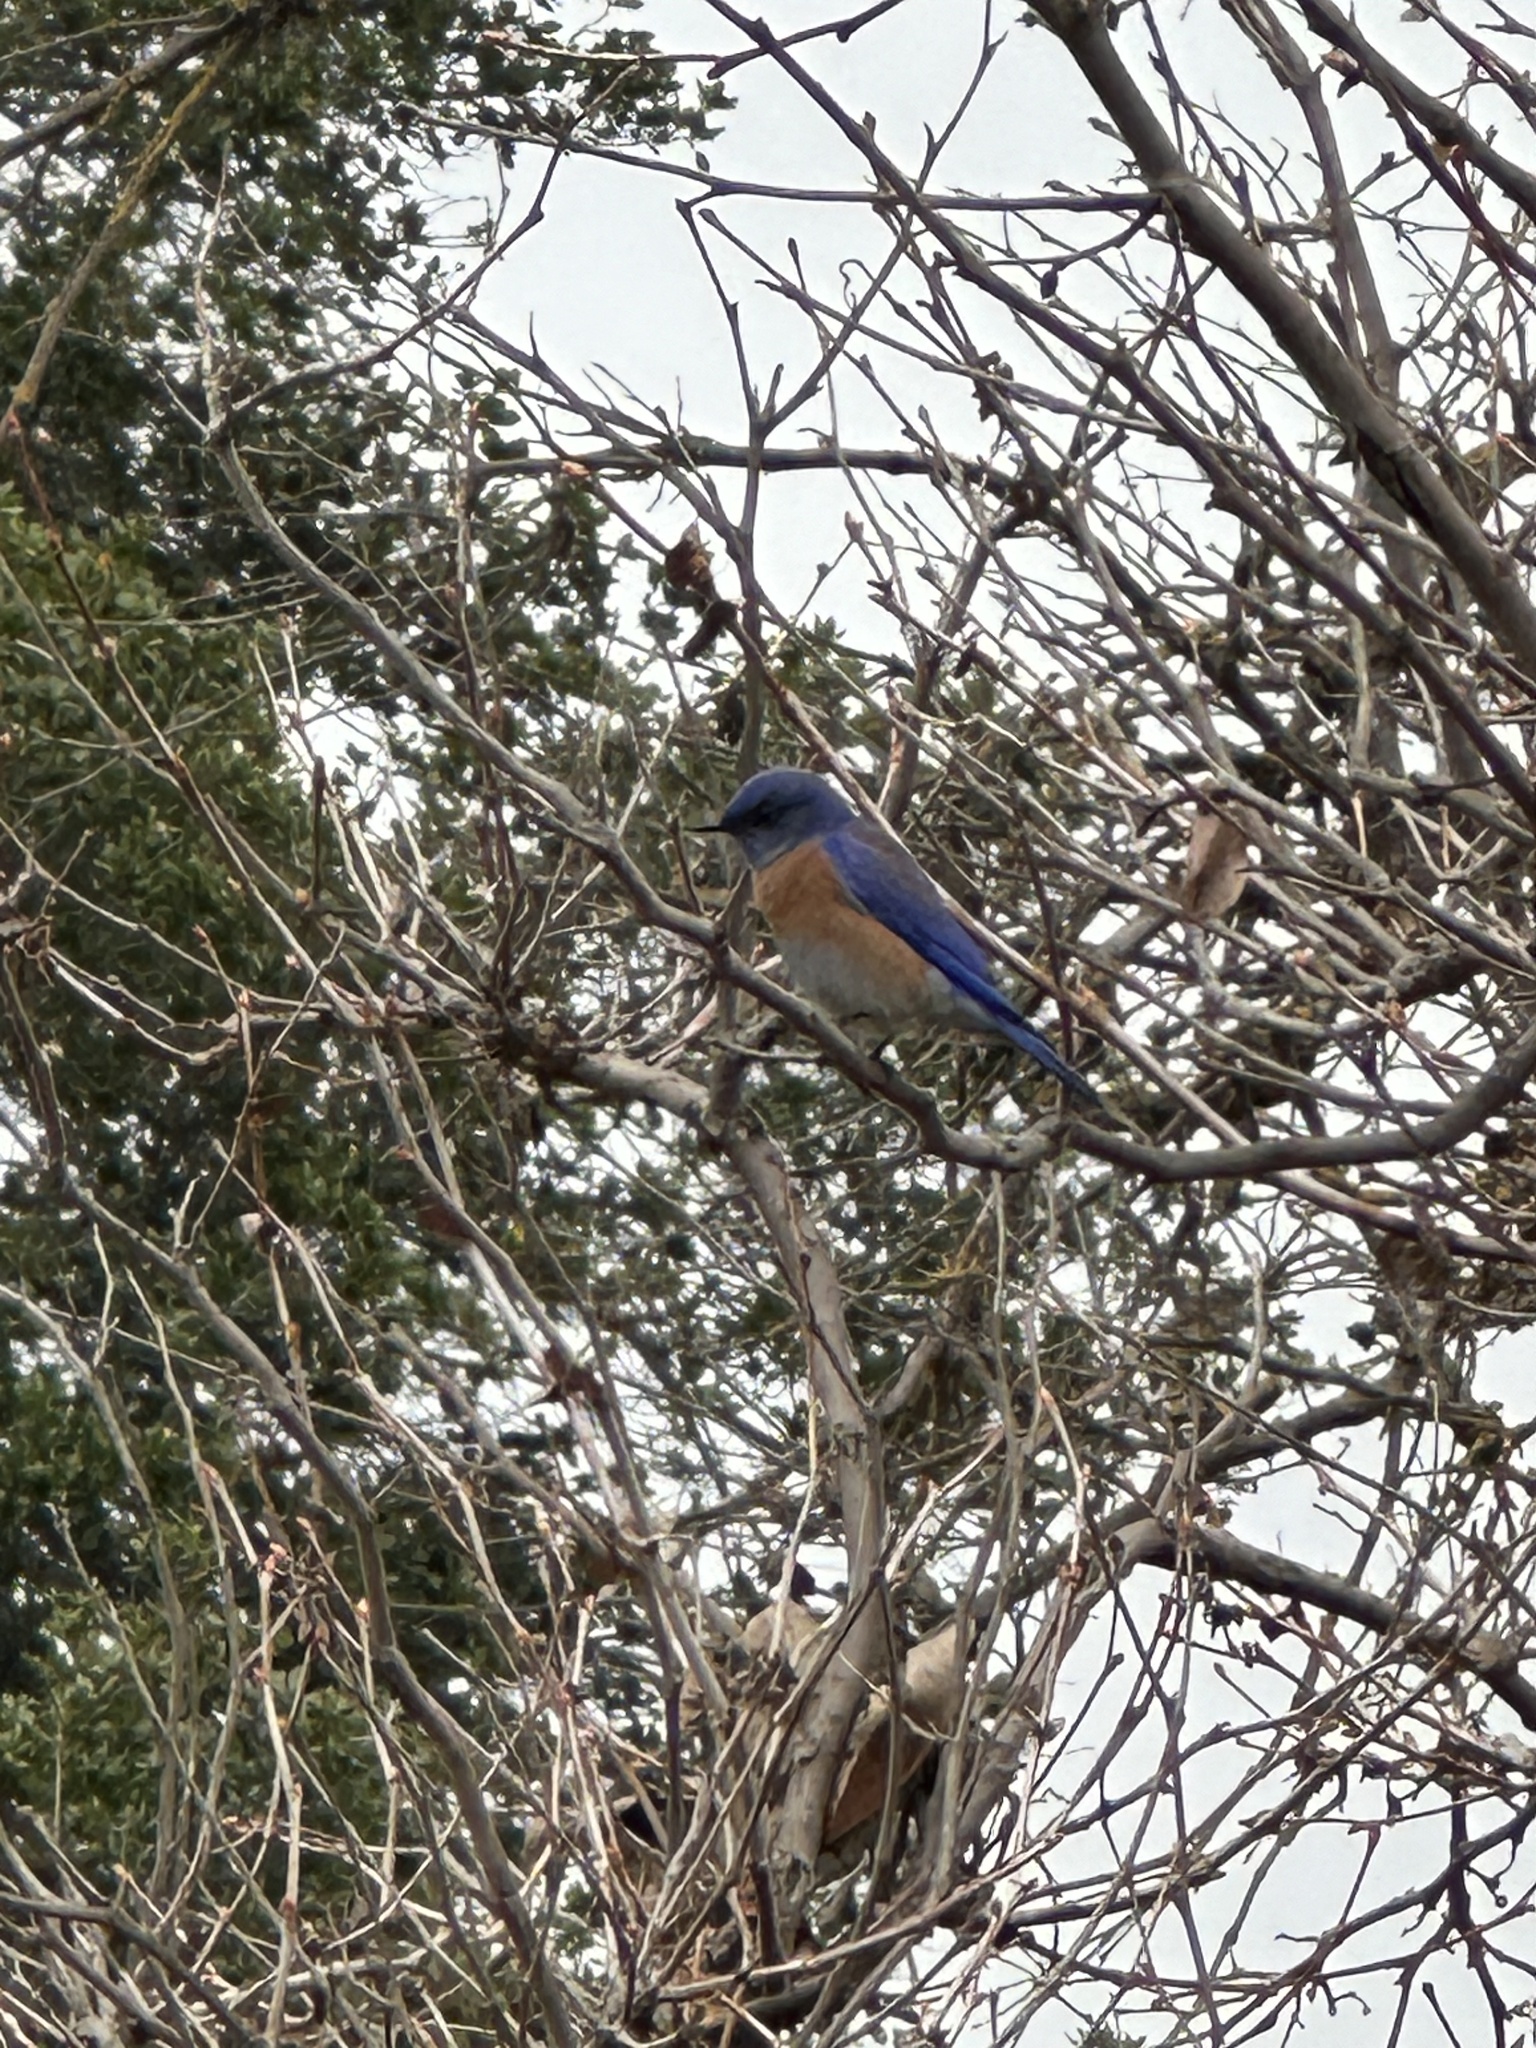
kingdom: Animalia
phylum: Chordata
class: Aves
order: Passeriformes
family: Turdidae
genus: Sialia
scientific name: Sialia mexicana
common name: Western bluebird
